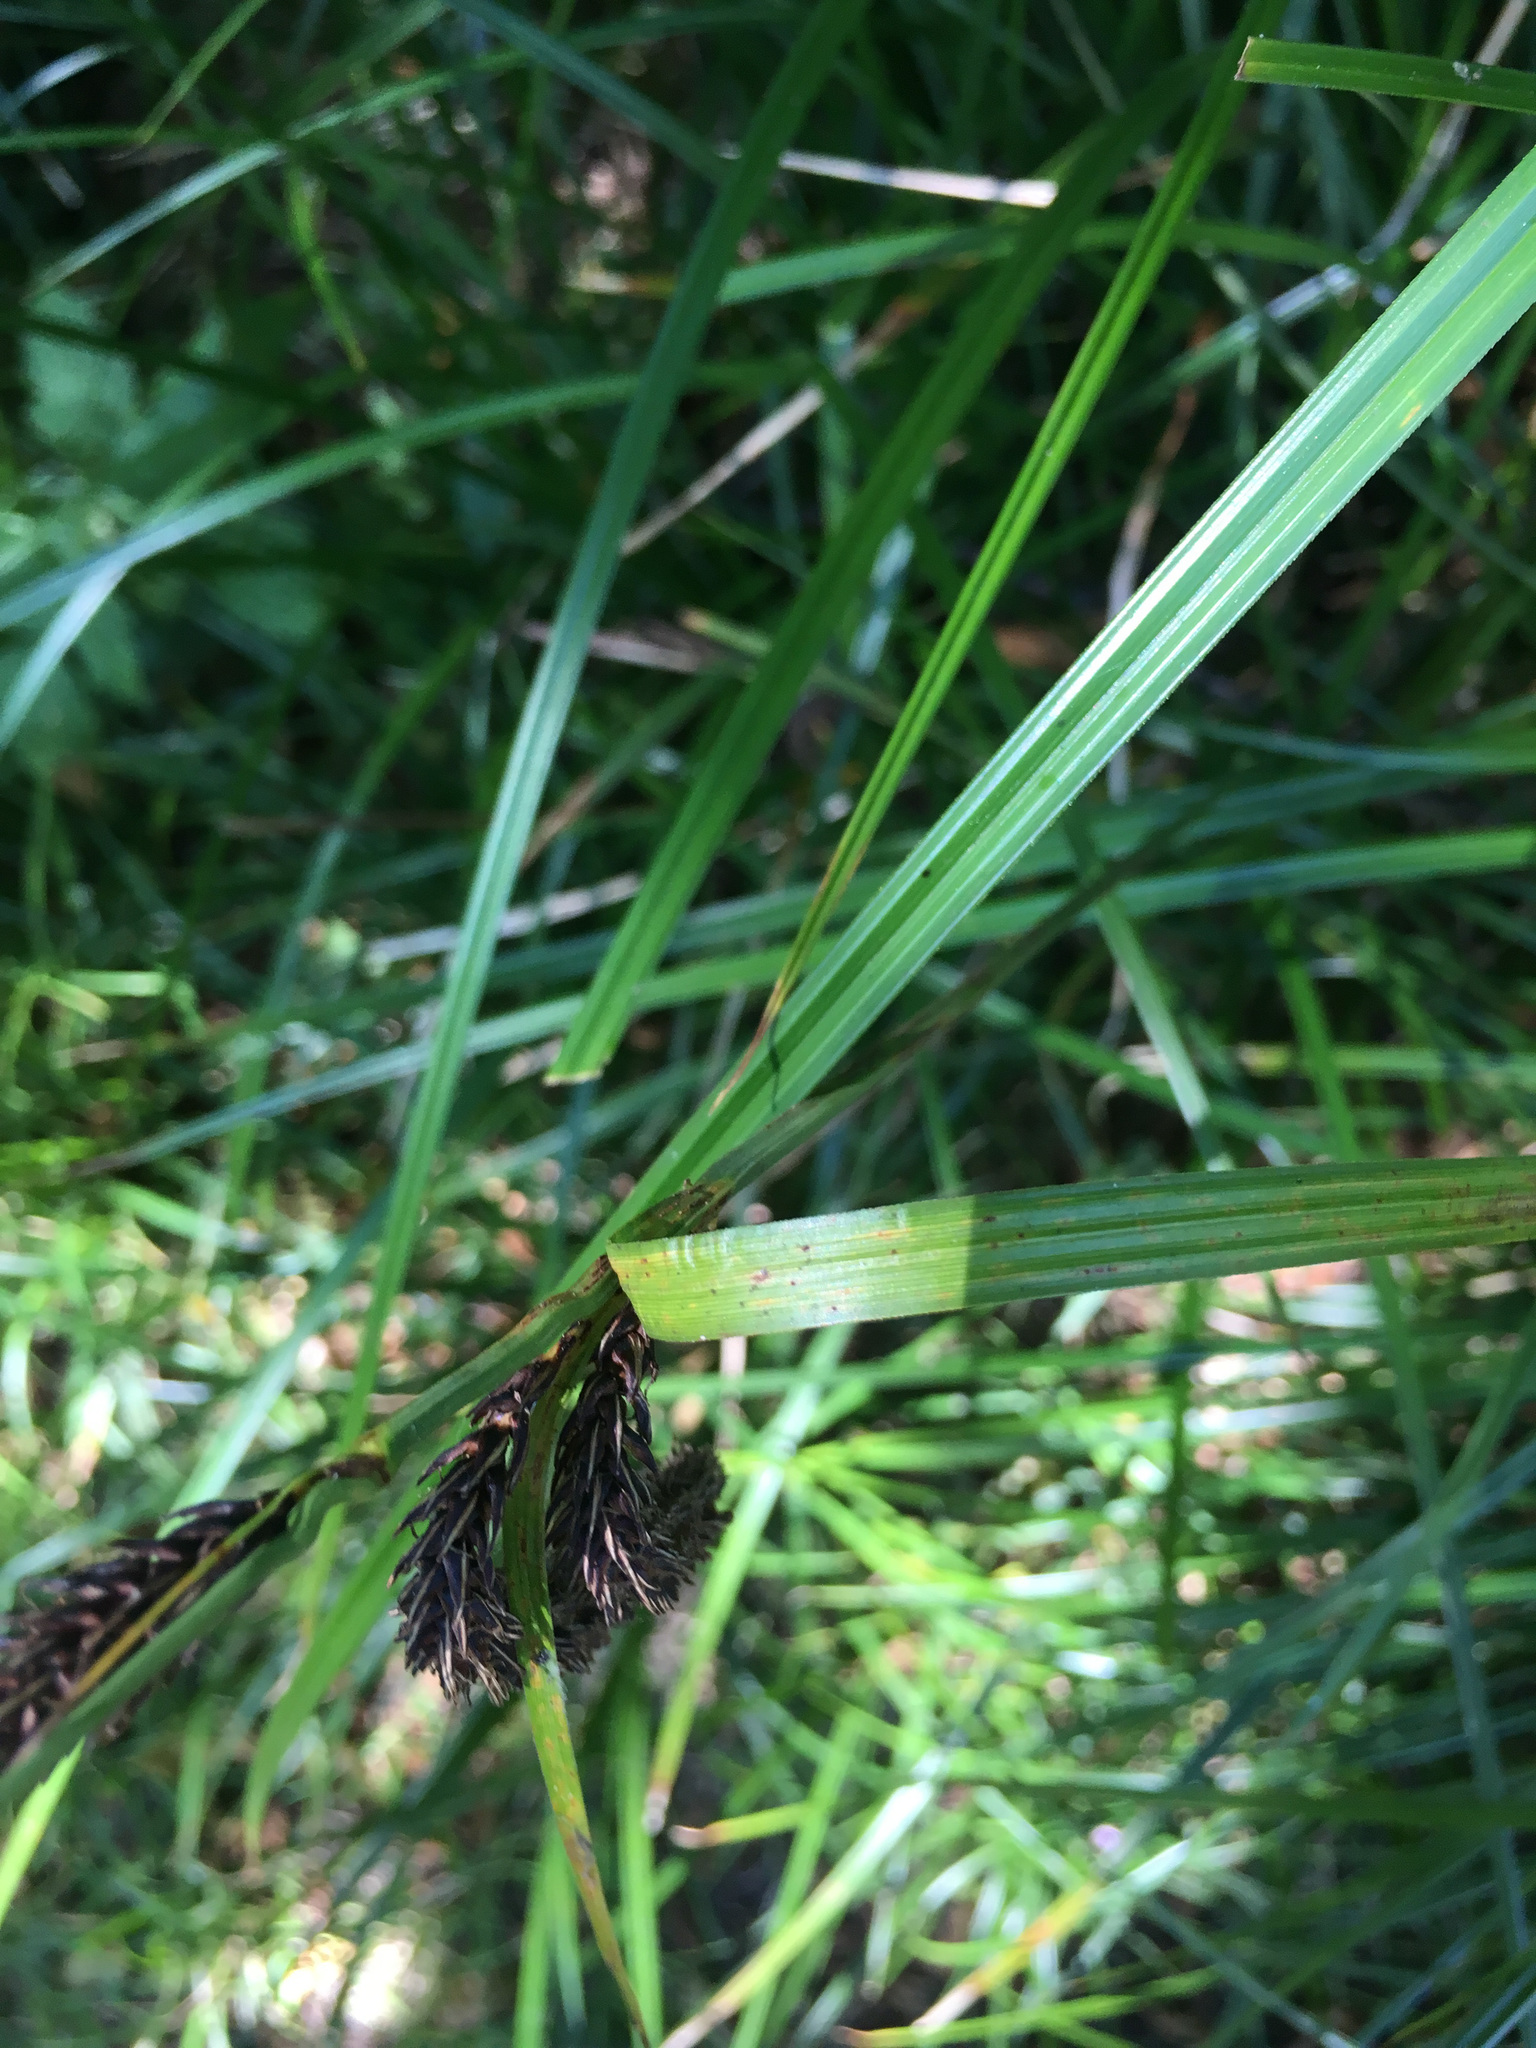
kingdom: Plantae
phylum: Tracheophyta
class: Liliopsida
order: Poales
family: Cyperaceae
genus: Carex
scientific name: Carex obnupta
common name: Slough sedge
